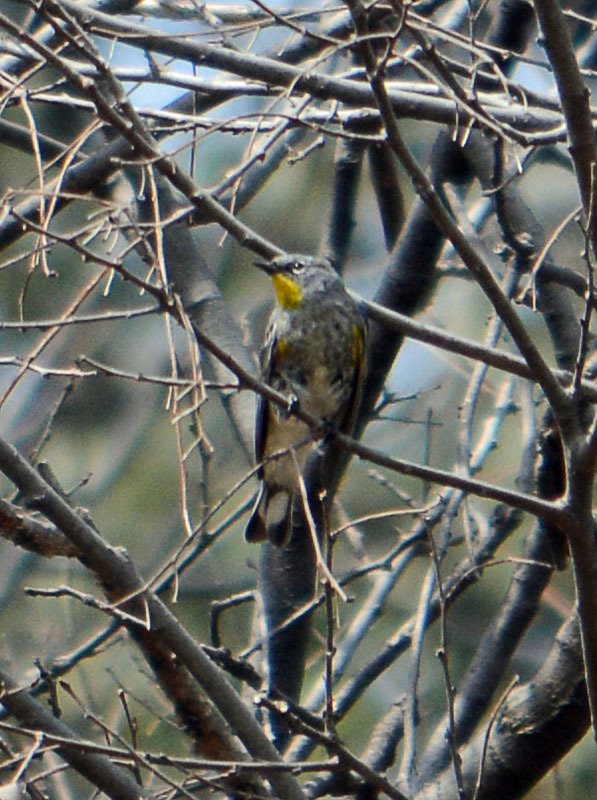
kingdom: Animalia
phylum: Chordata
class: Aves
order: Passeriformes
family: Parulidae
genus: Setophaga
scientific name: Setophaga coronata
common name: Myrtle warbler
